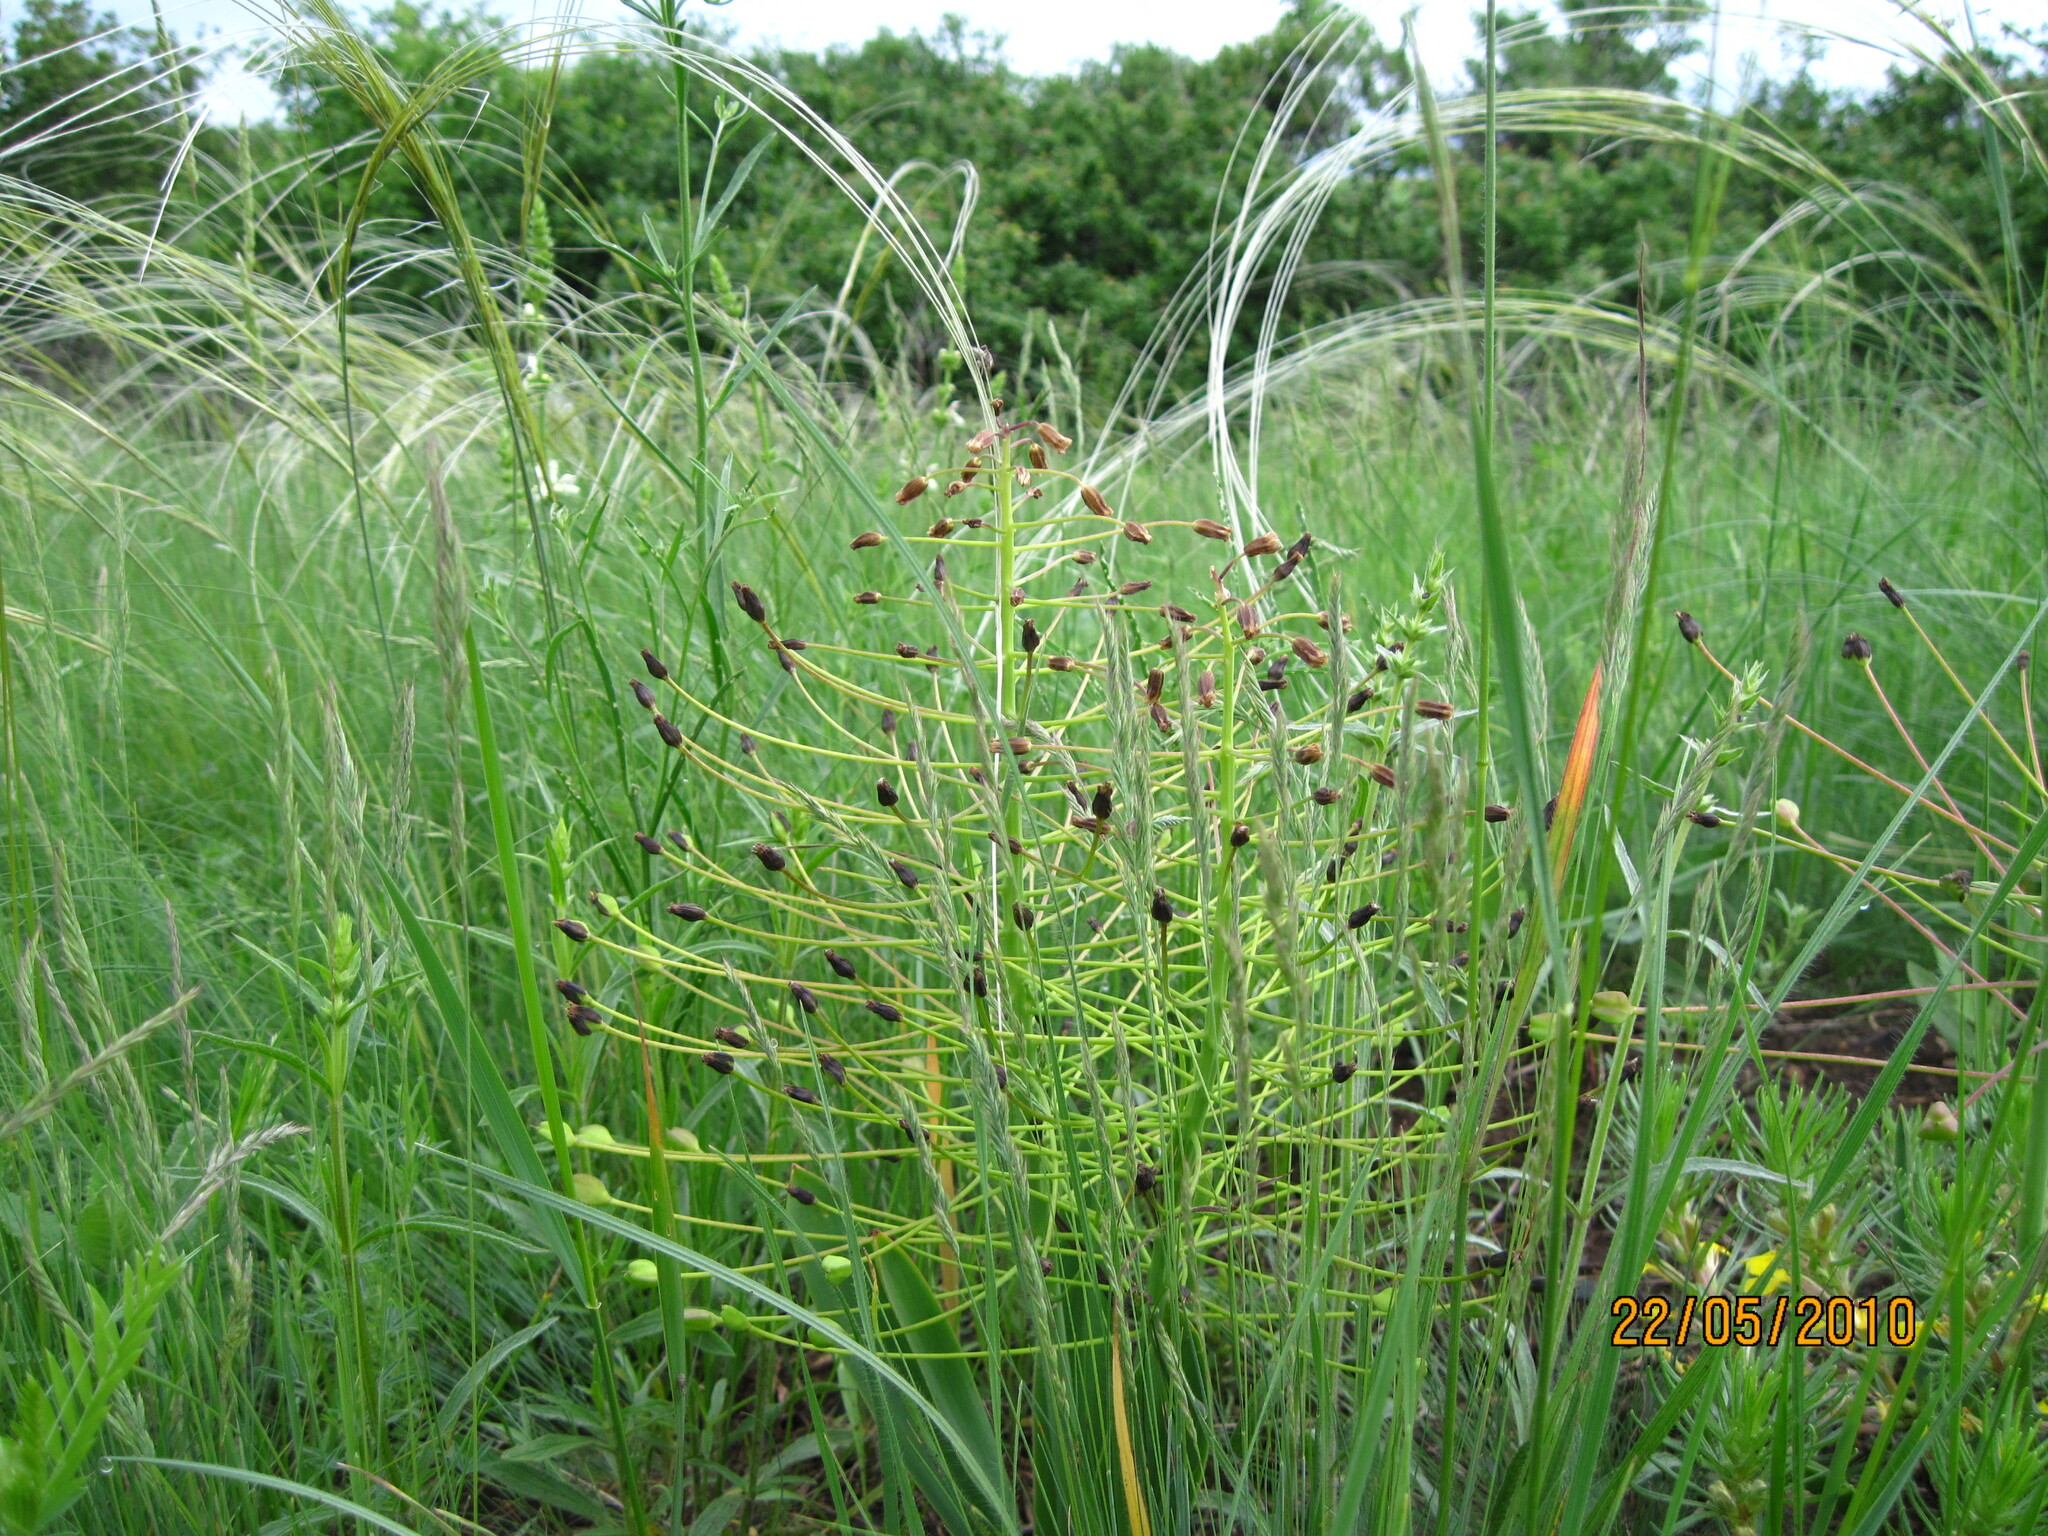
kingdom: Plantae
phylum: Tracheophyta
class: Liliopsida
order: Asparagales
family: Asparagaceae
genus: Bellevalia
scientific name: Bellevalia speciosa
